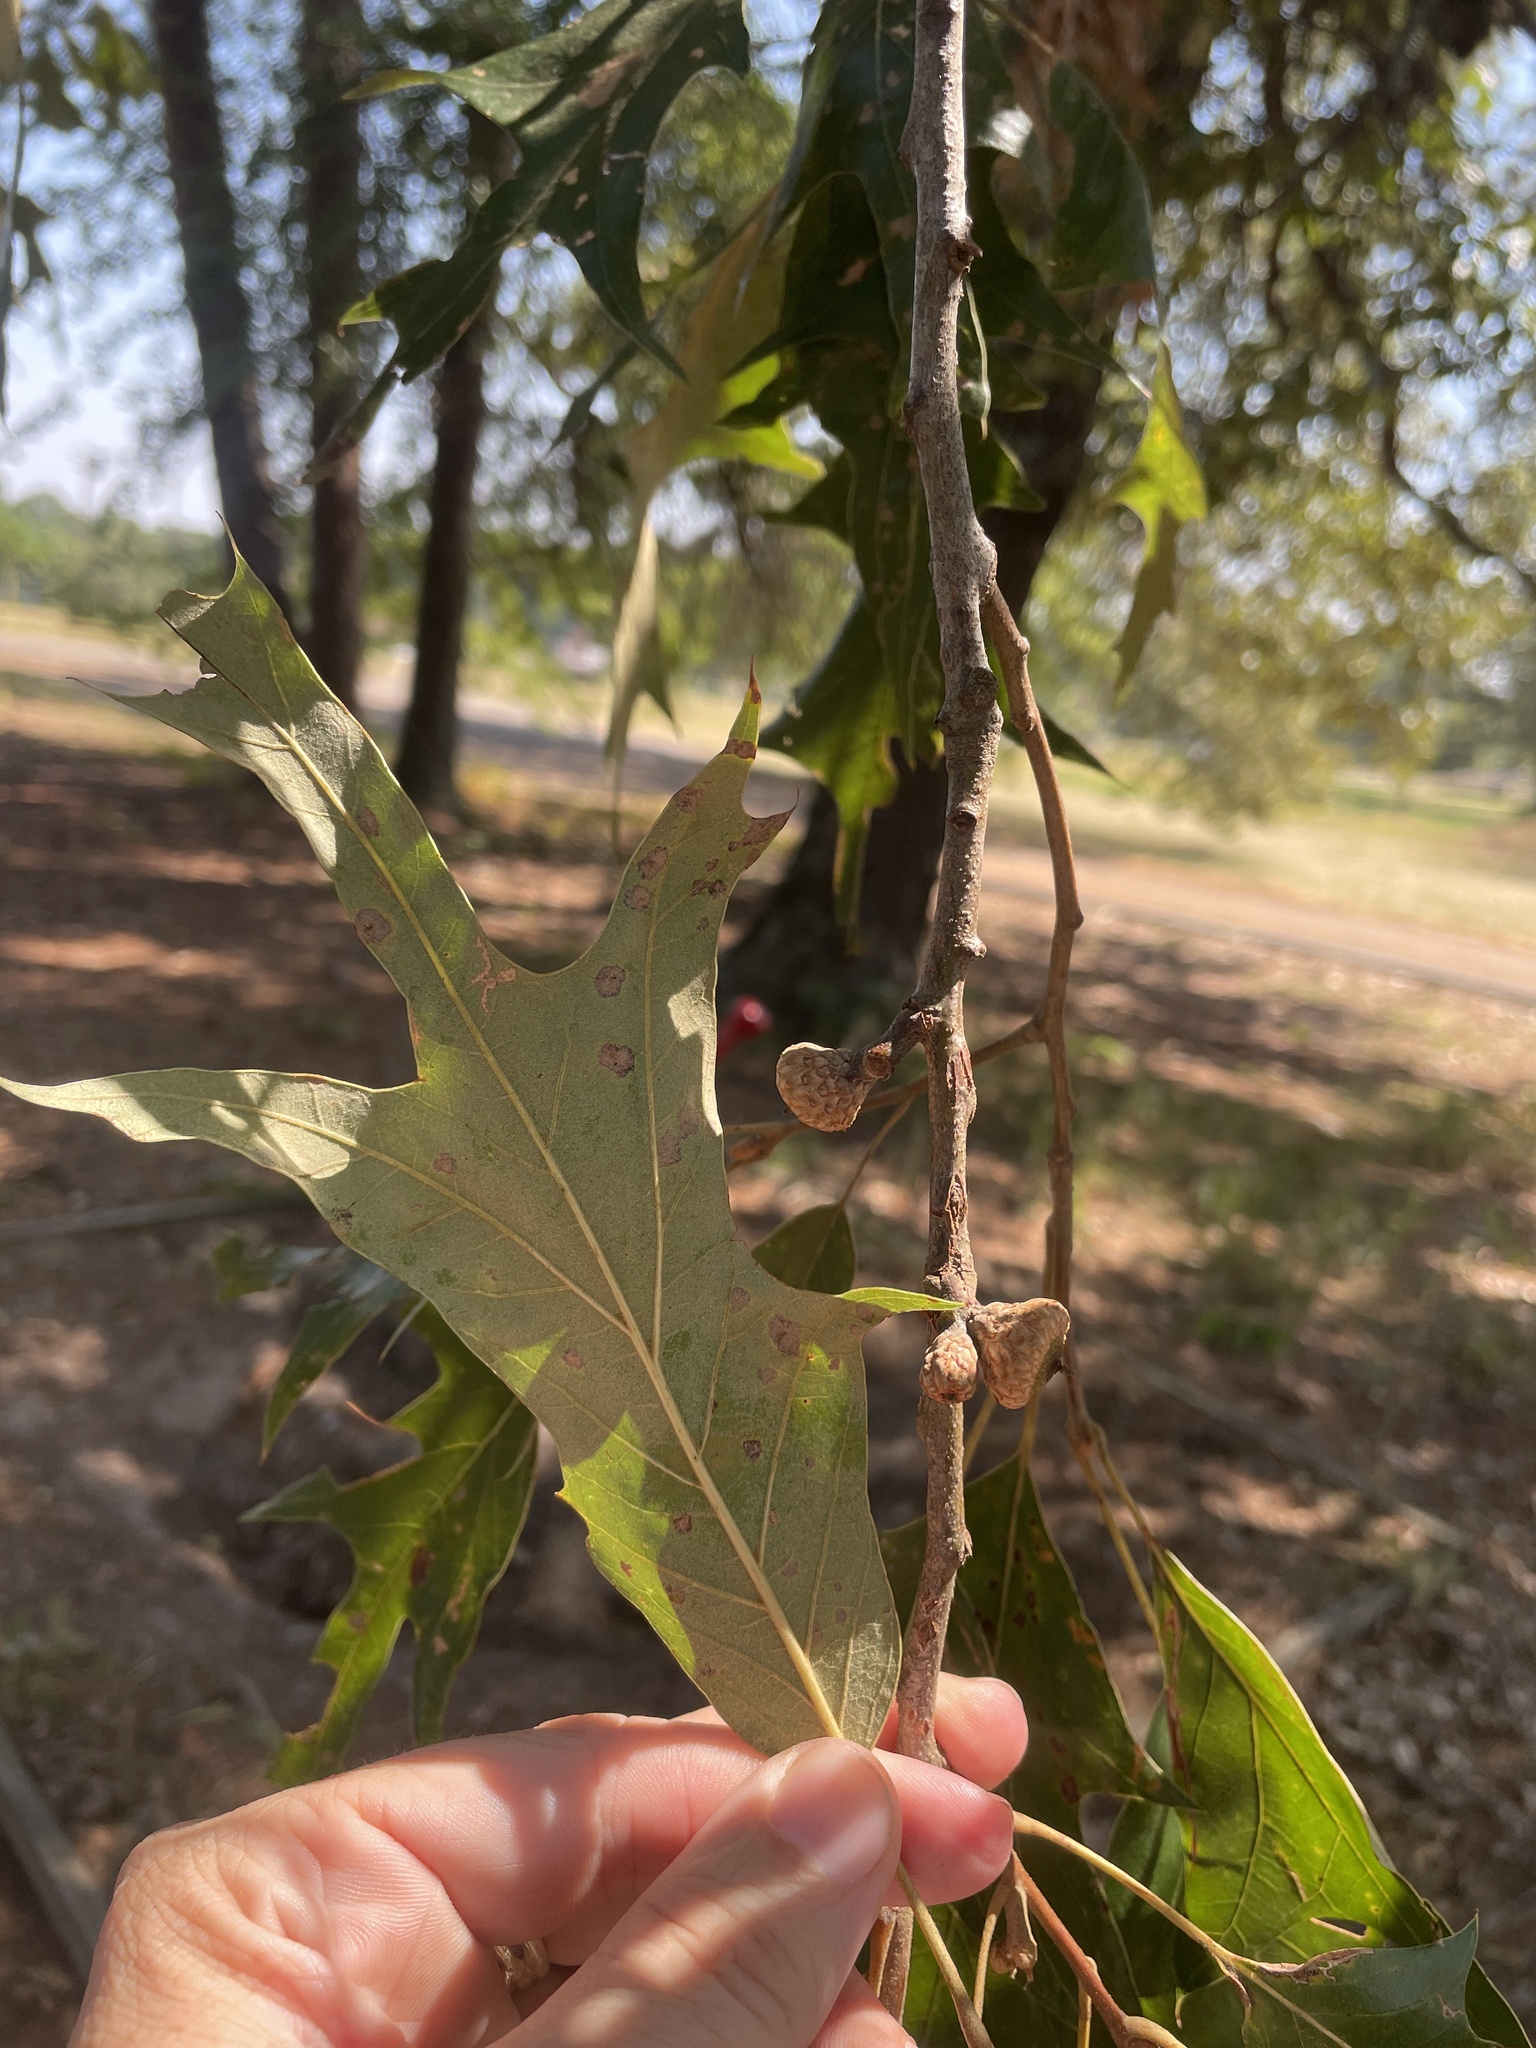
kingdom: Plantae
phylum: Tracheophyta
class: Magnoliopsida
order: Fagales
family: Fagaceae
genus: Quercus
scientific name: Quercus falcata
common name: Southern red oak
